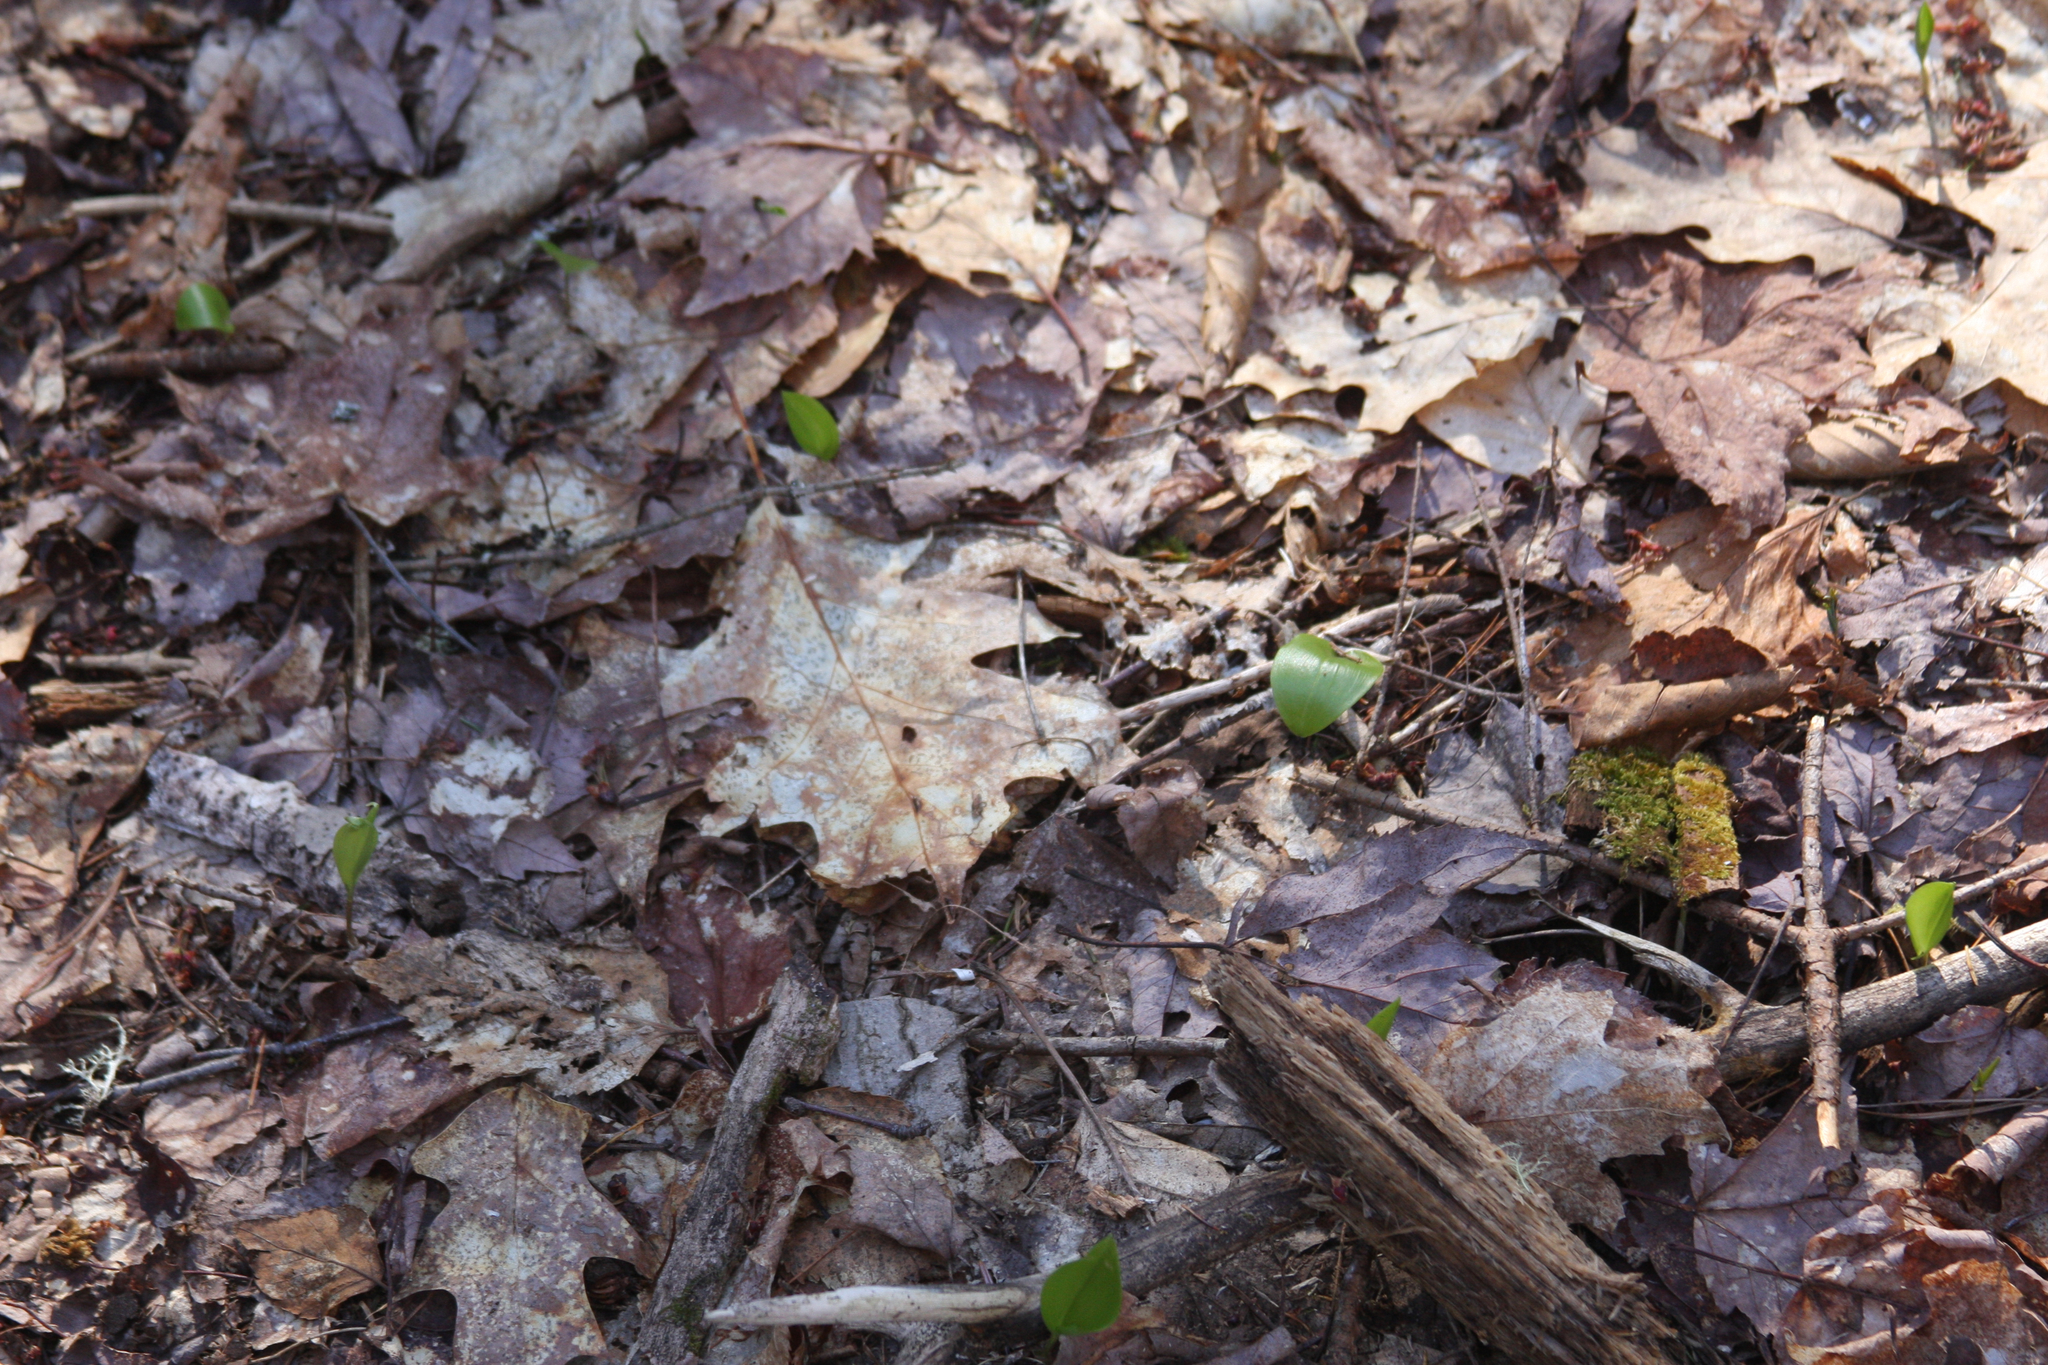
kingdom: Plantae
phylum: Tracheophyta
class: Liliopsida
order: Asparagales
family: Asparagaceae
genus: Maianthemum
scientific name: Maianthemum canadense
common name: False lily-of-the-valley
